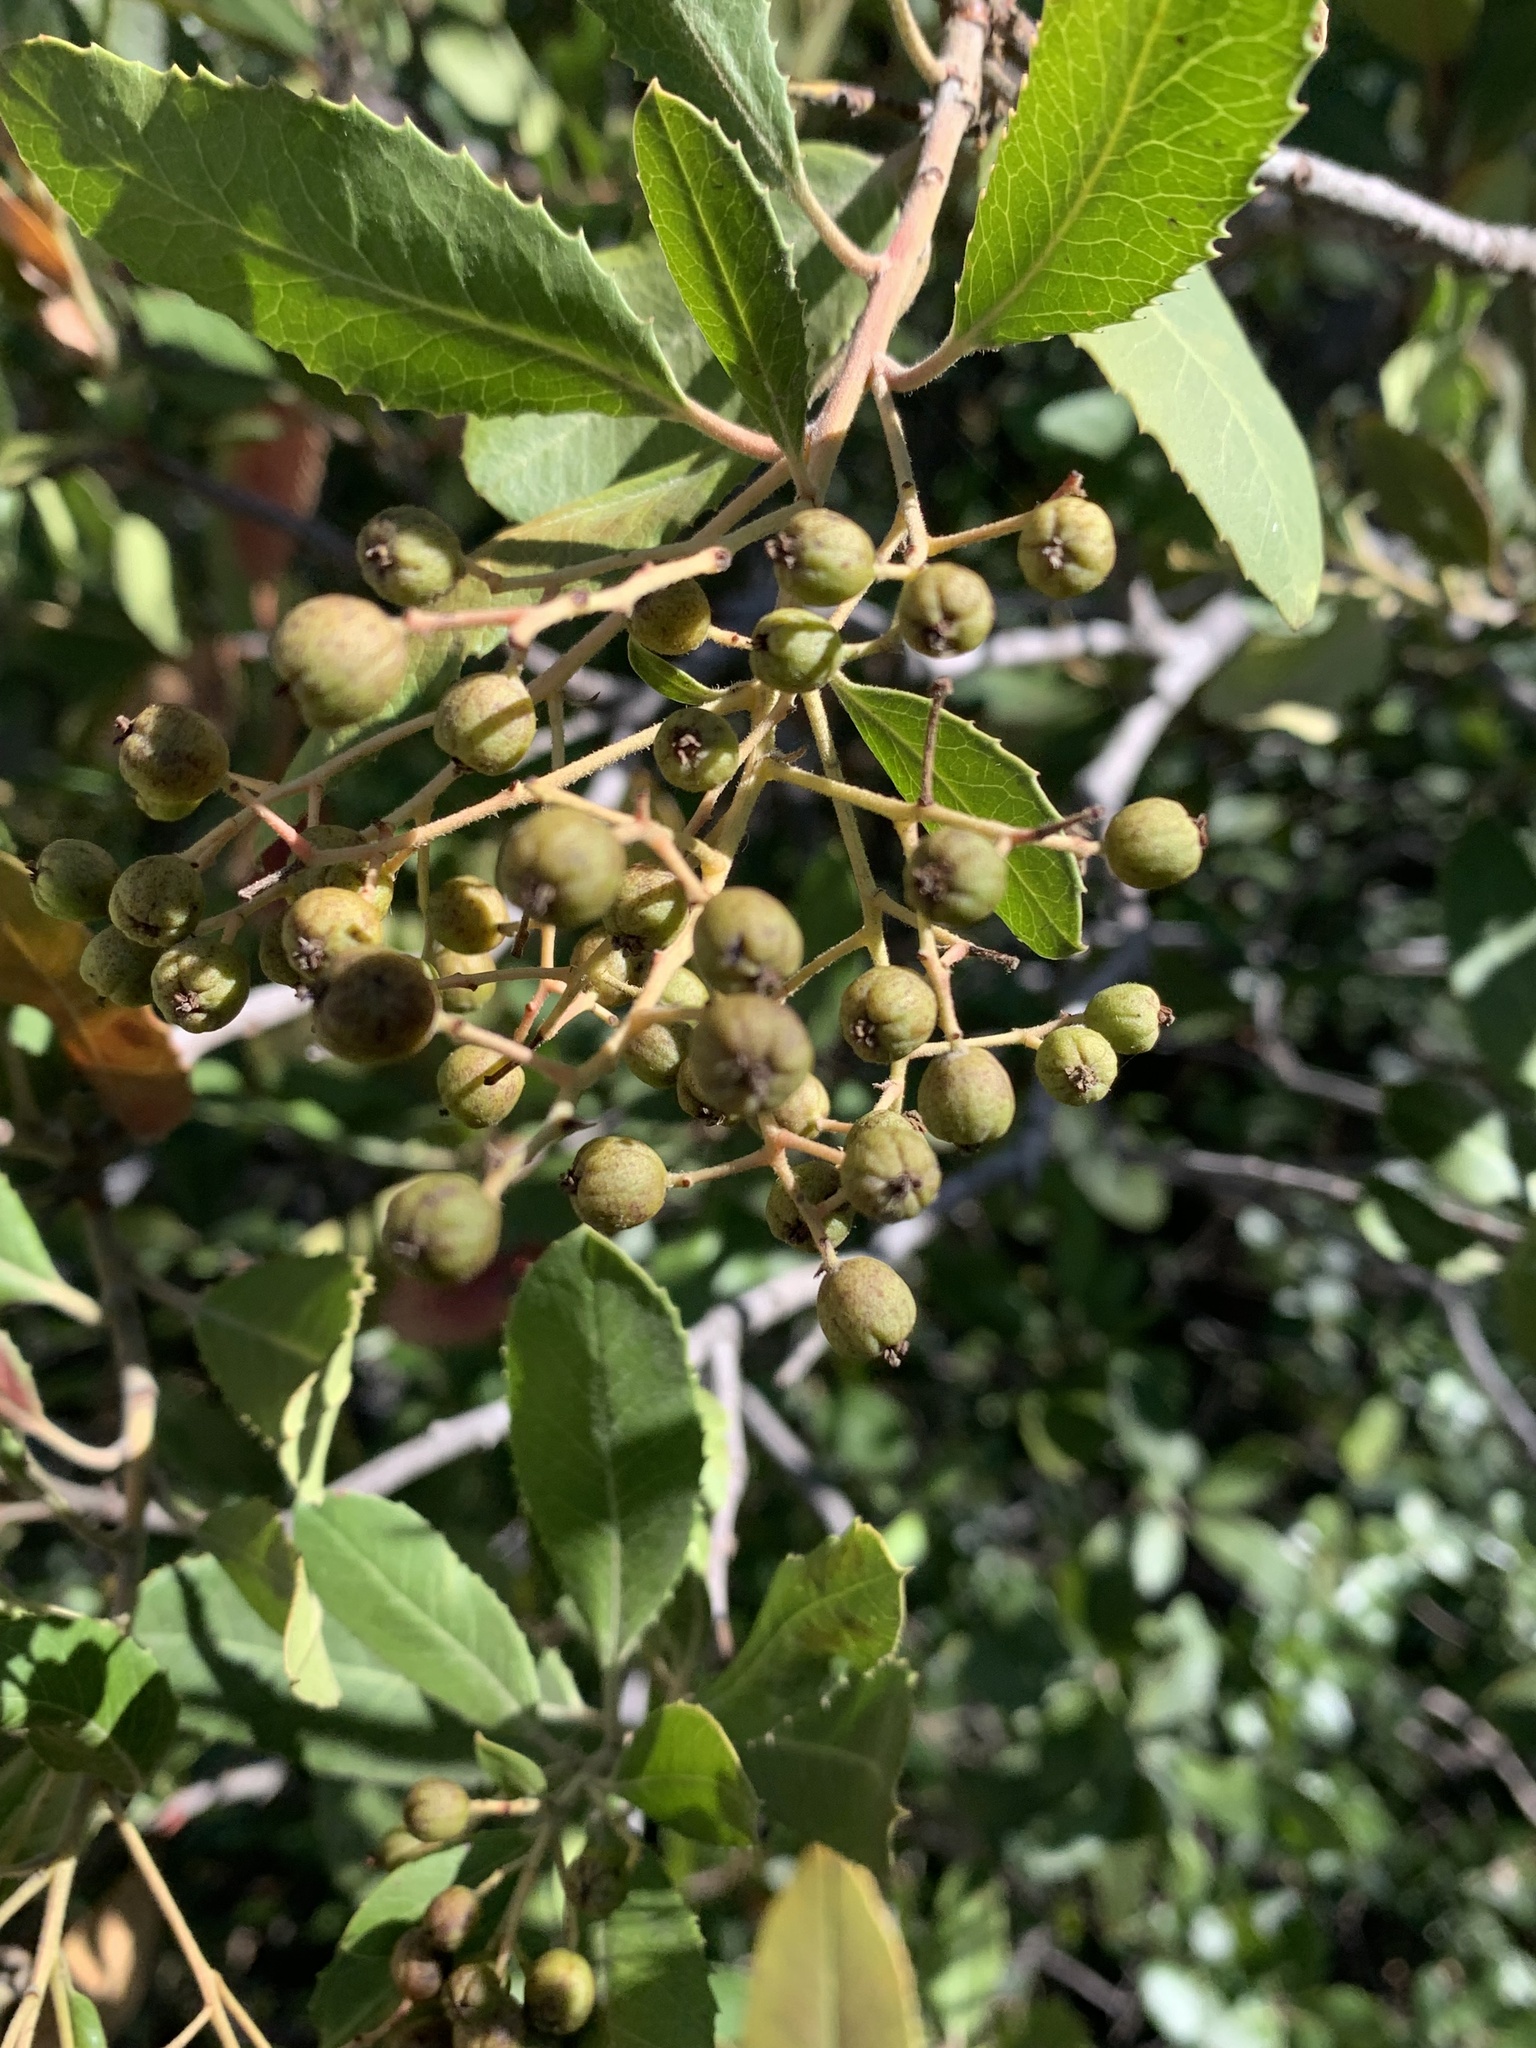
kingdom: Plantae
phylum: Tracheophyta
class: Magnoliopsida
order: Rosales
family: Rosaceae
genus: Heteromeles
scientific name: Heteromeles arbutifolia
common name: California-holly
